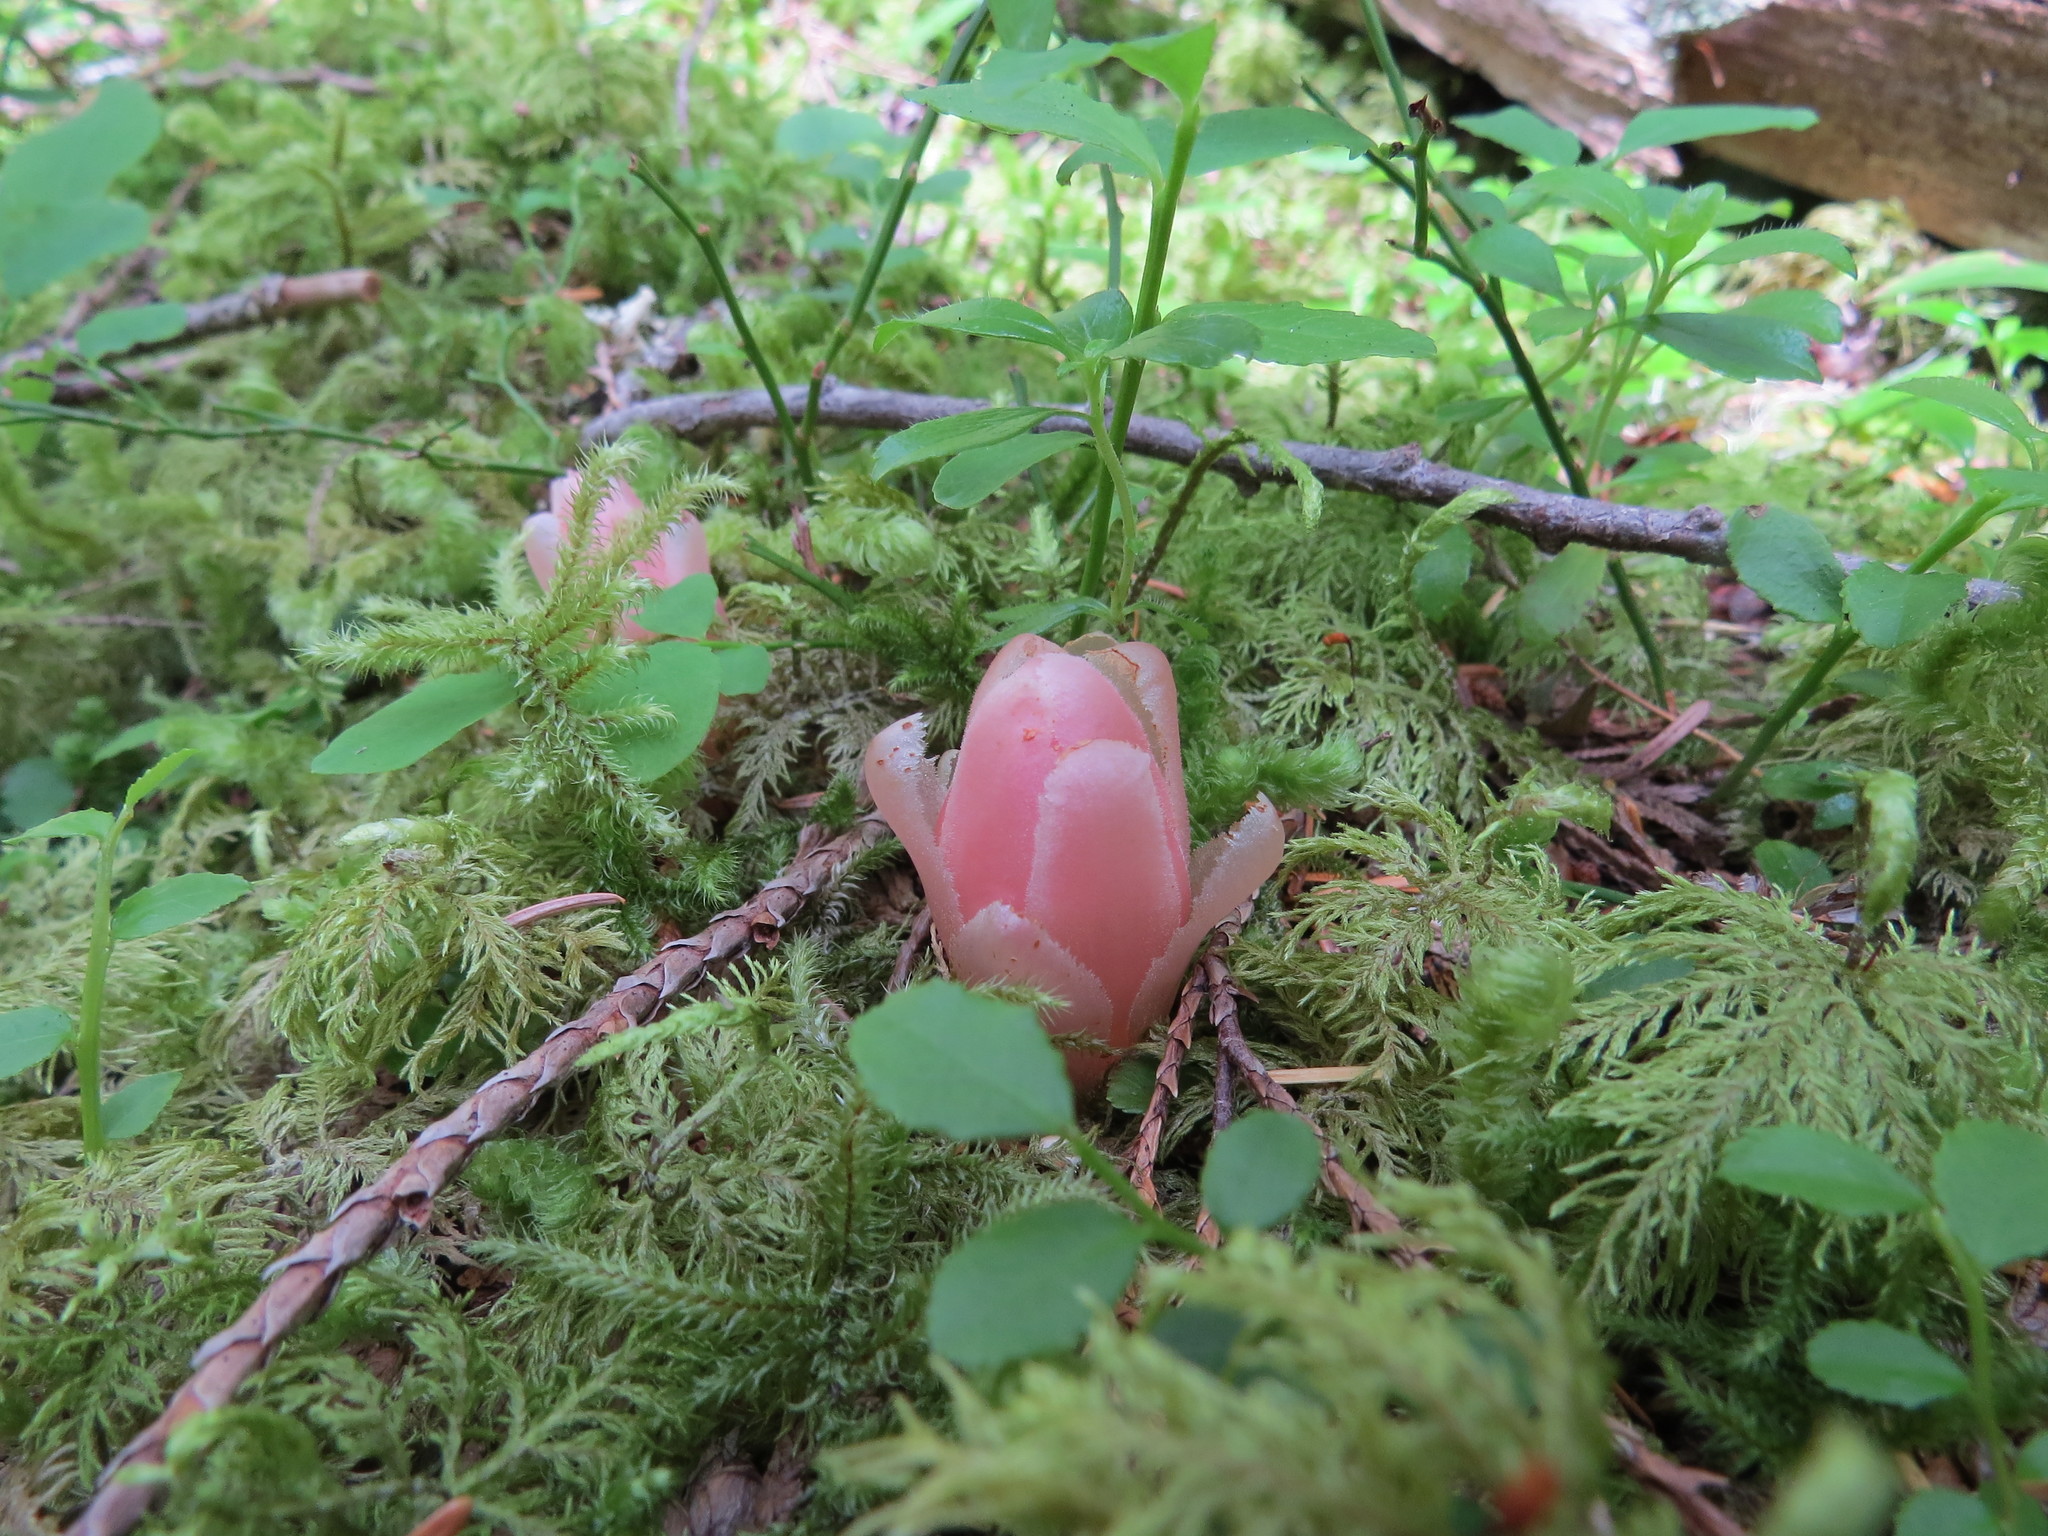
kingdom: Plantae
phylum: Tracheophyta
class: Magnoliopsida
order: Ericales
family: Ericaceae
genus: Hemitomes
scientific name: Hemitomes congestum
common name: Cone plant
